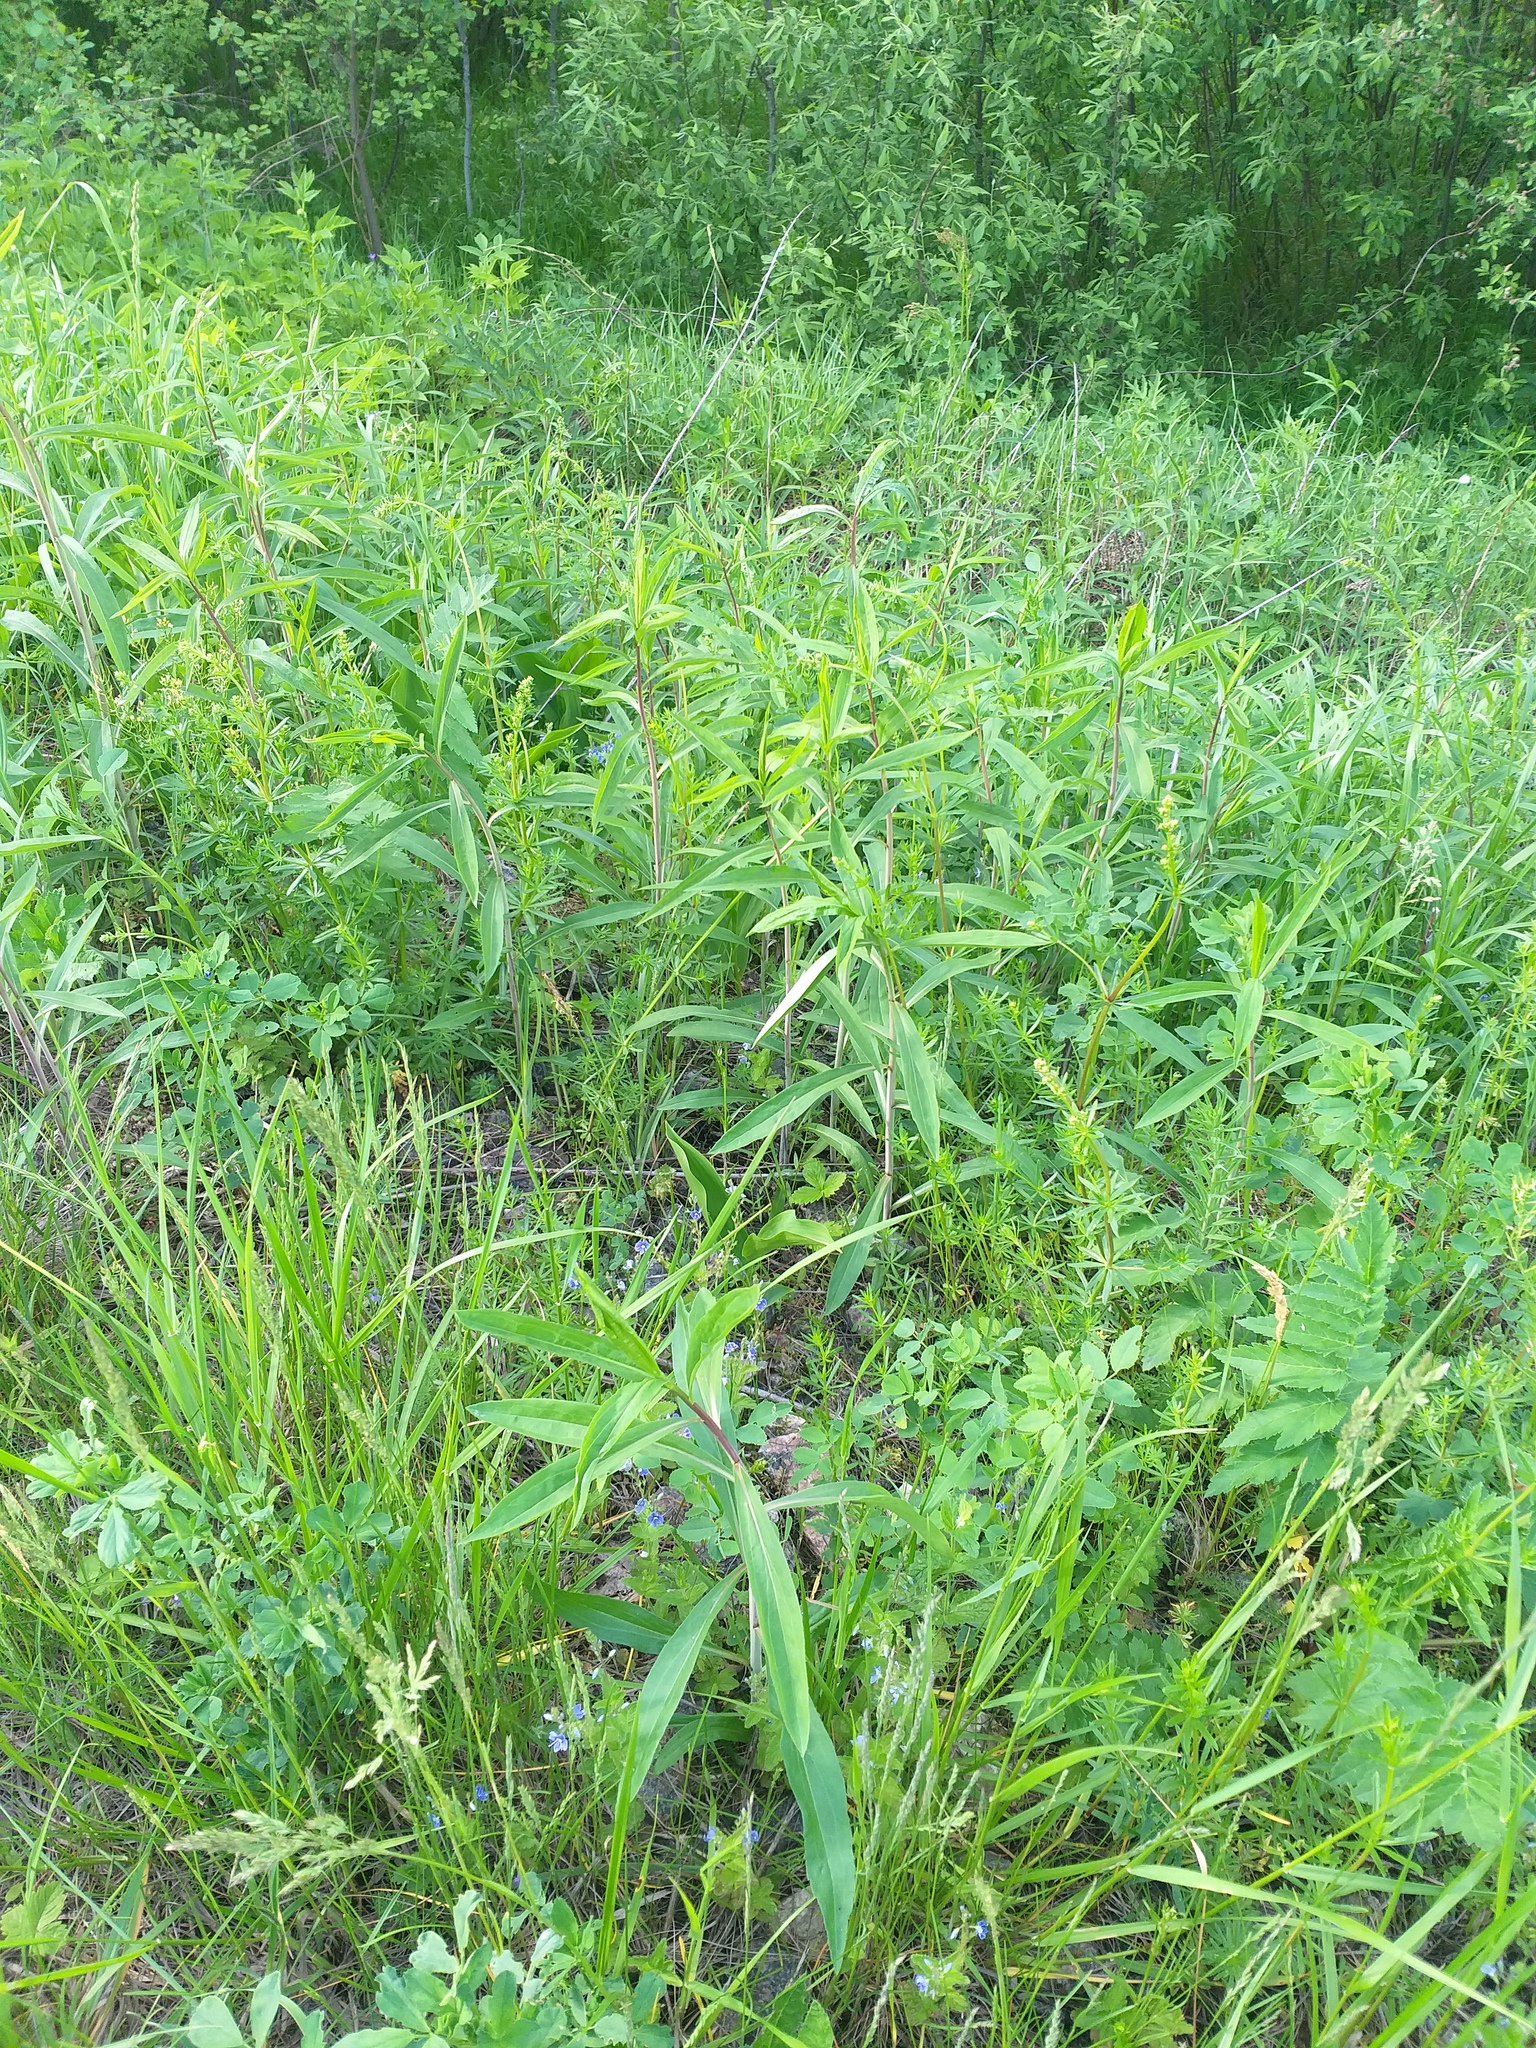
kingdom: Plantae
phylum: Tracheophyta
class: Magnoliopsida
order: Asterales
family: Asteraceae
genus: Solidago
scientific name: Solidago gigantea
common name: Giant goldenrod
